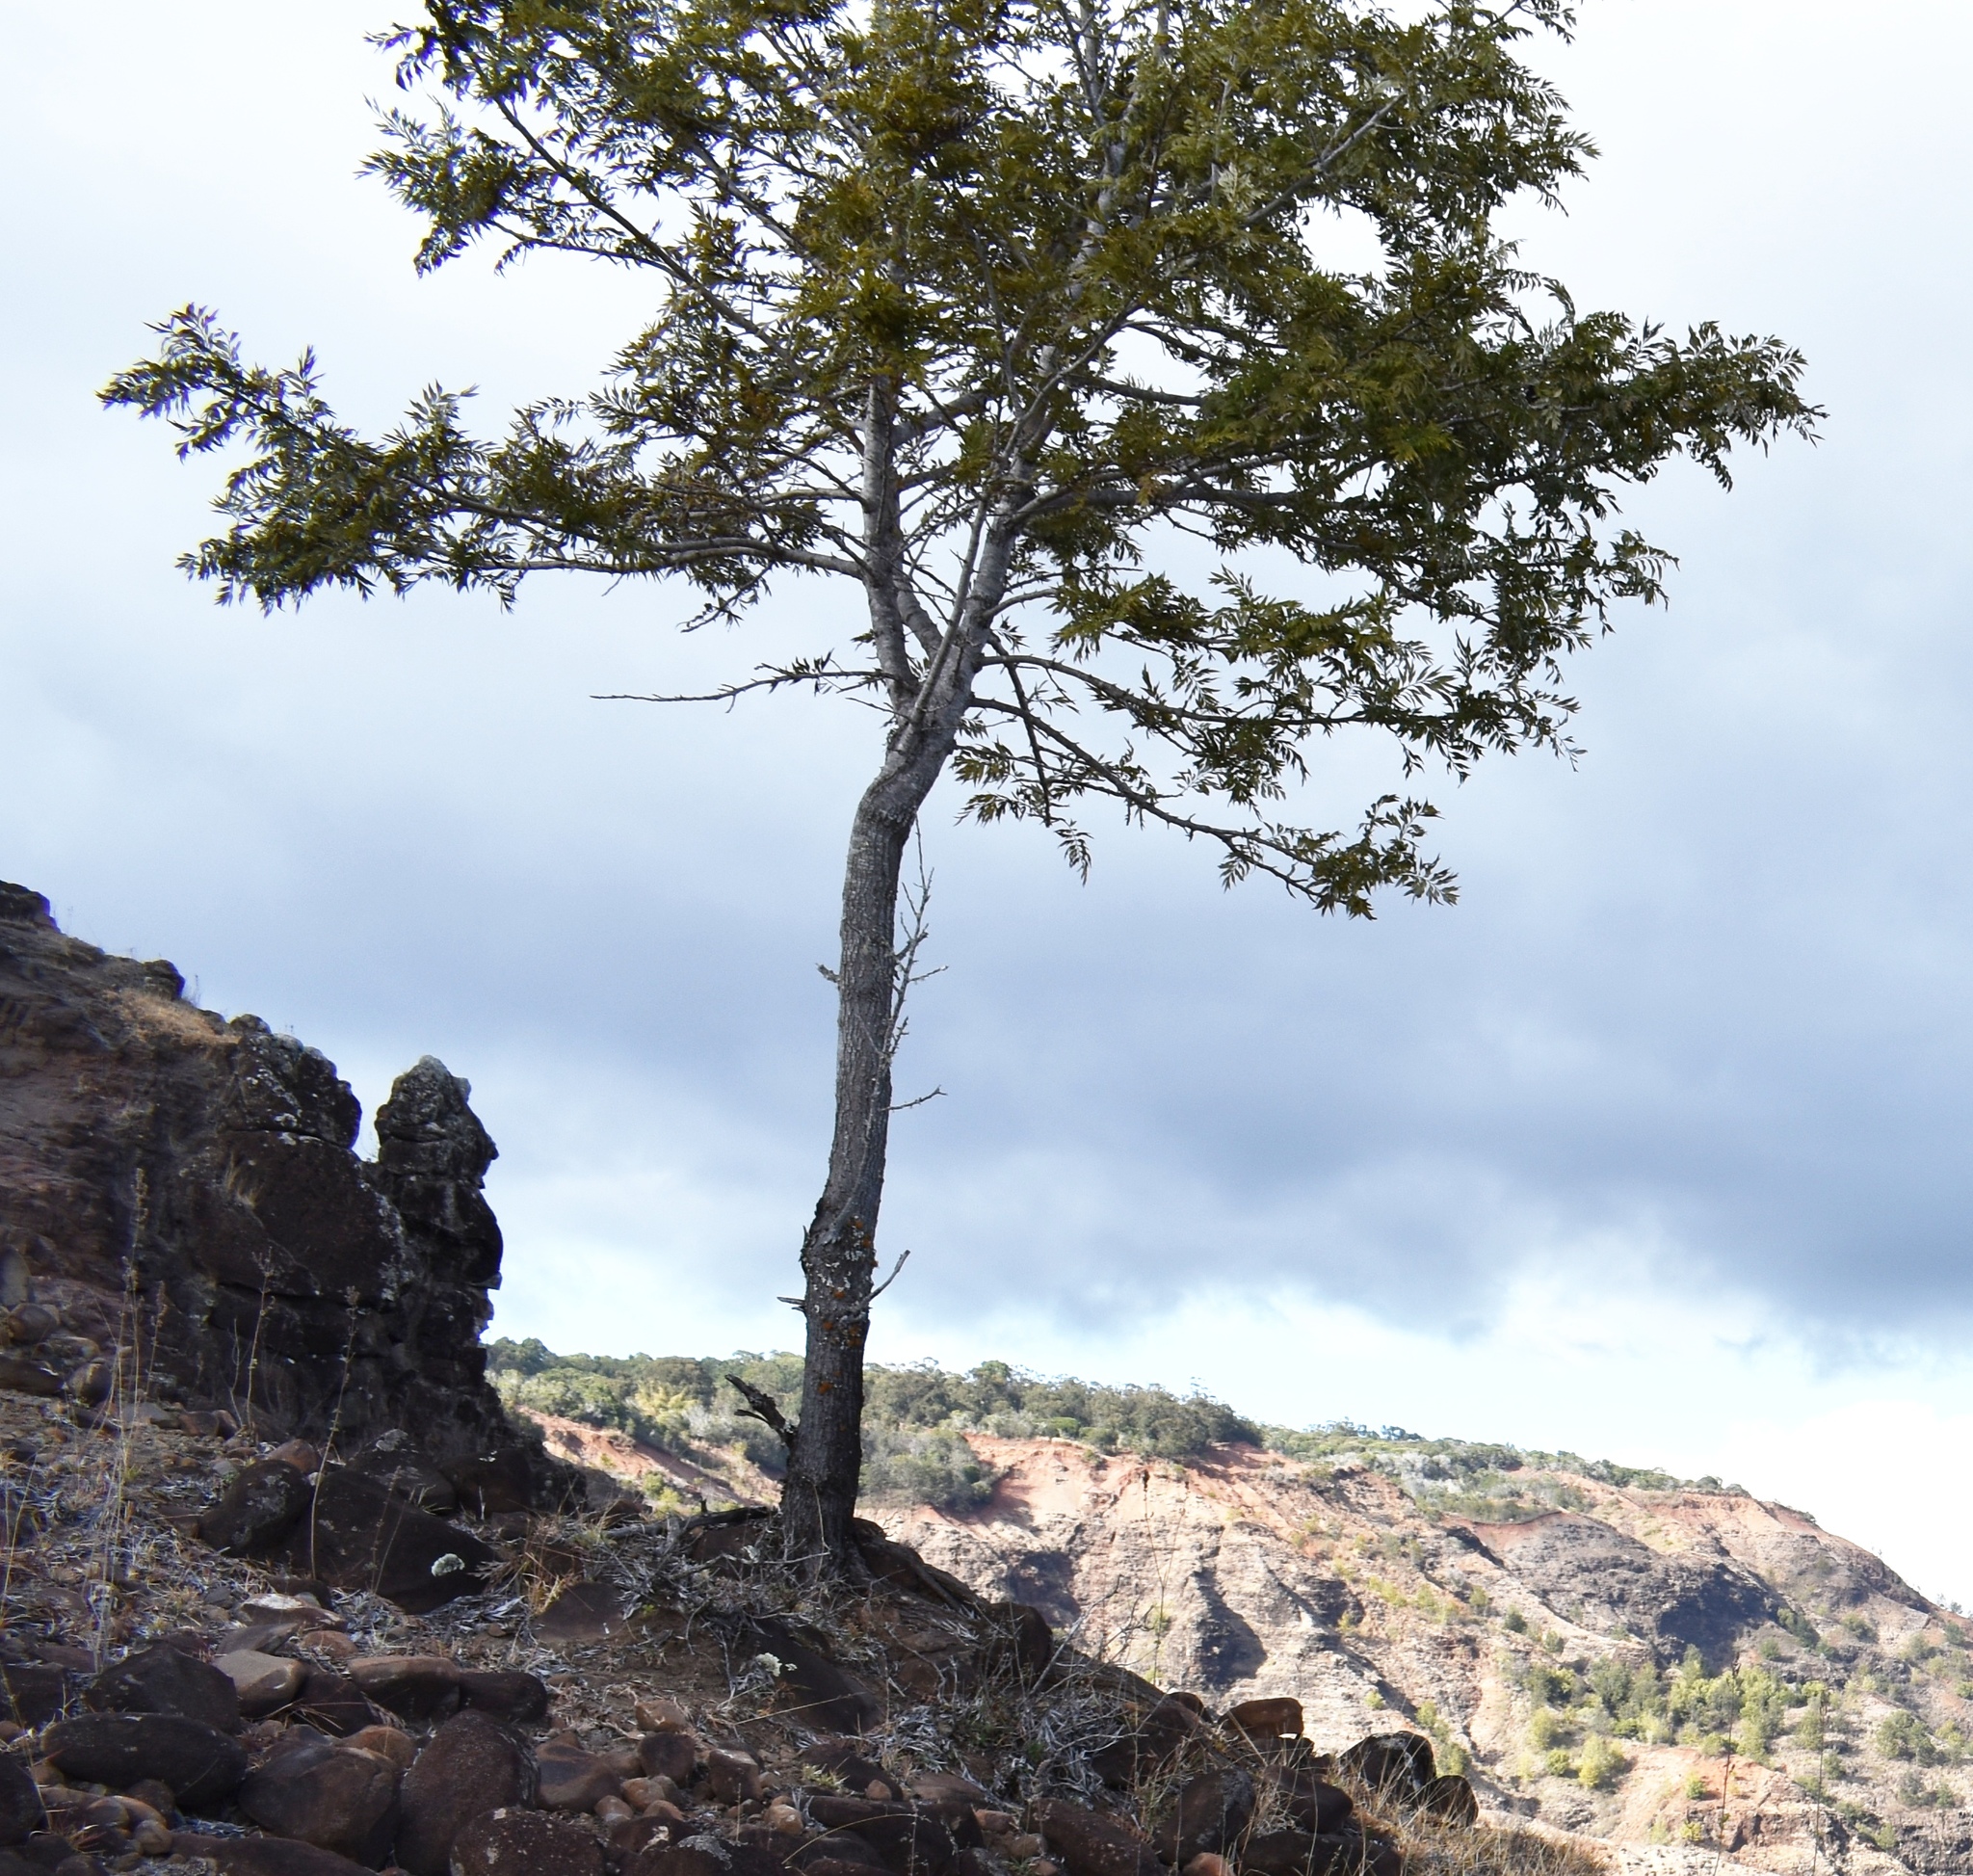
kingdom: Plantae
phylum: Tracheophyta
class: Magnoliopsida
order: Proteales
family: Proteaceae
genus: Grevillea
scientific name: Grevillea robusta
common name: Silkoak
